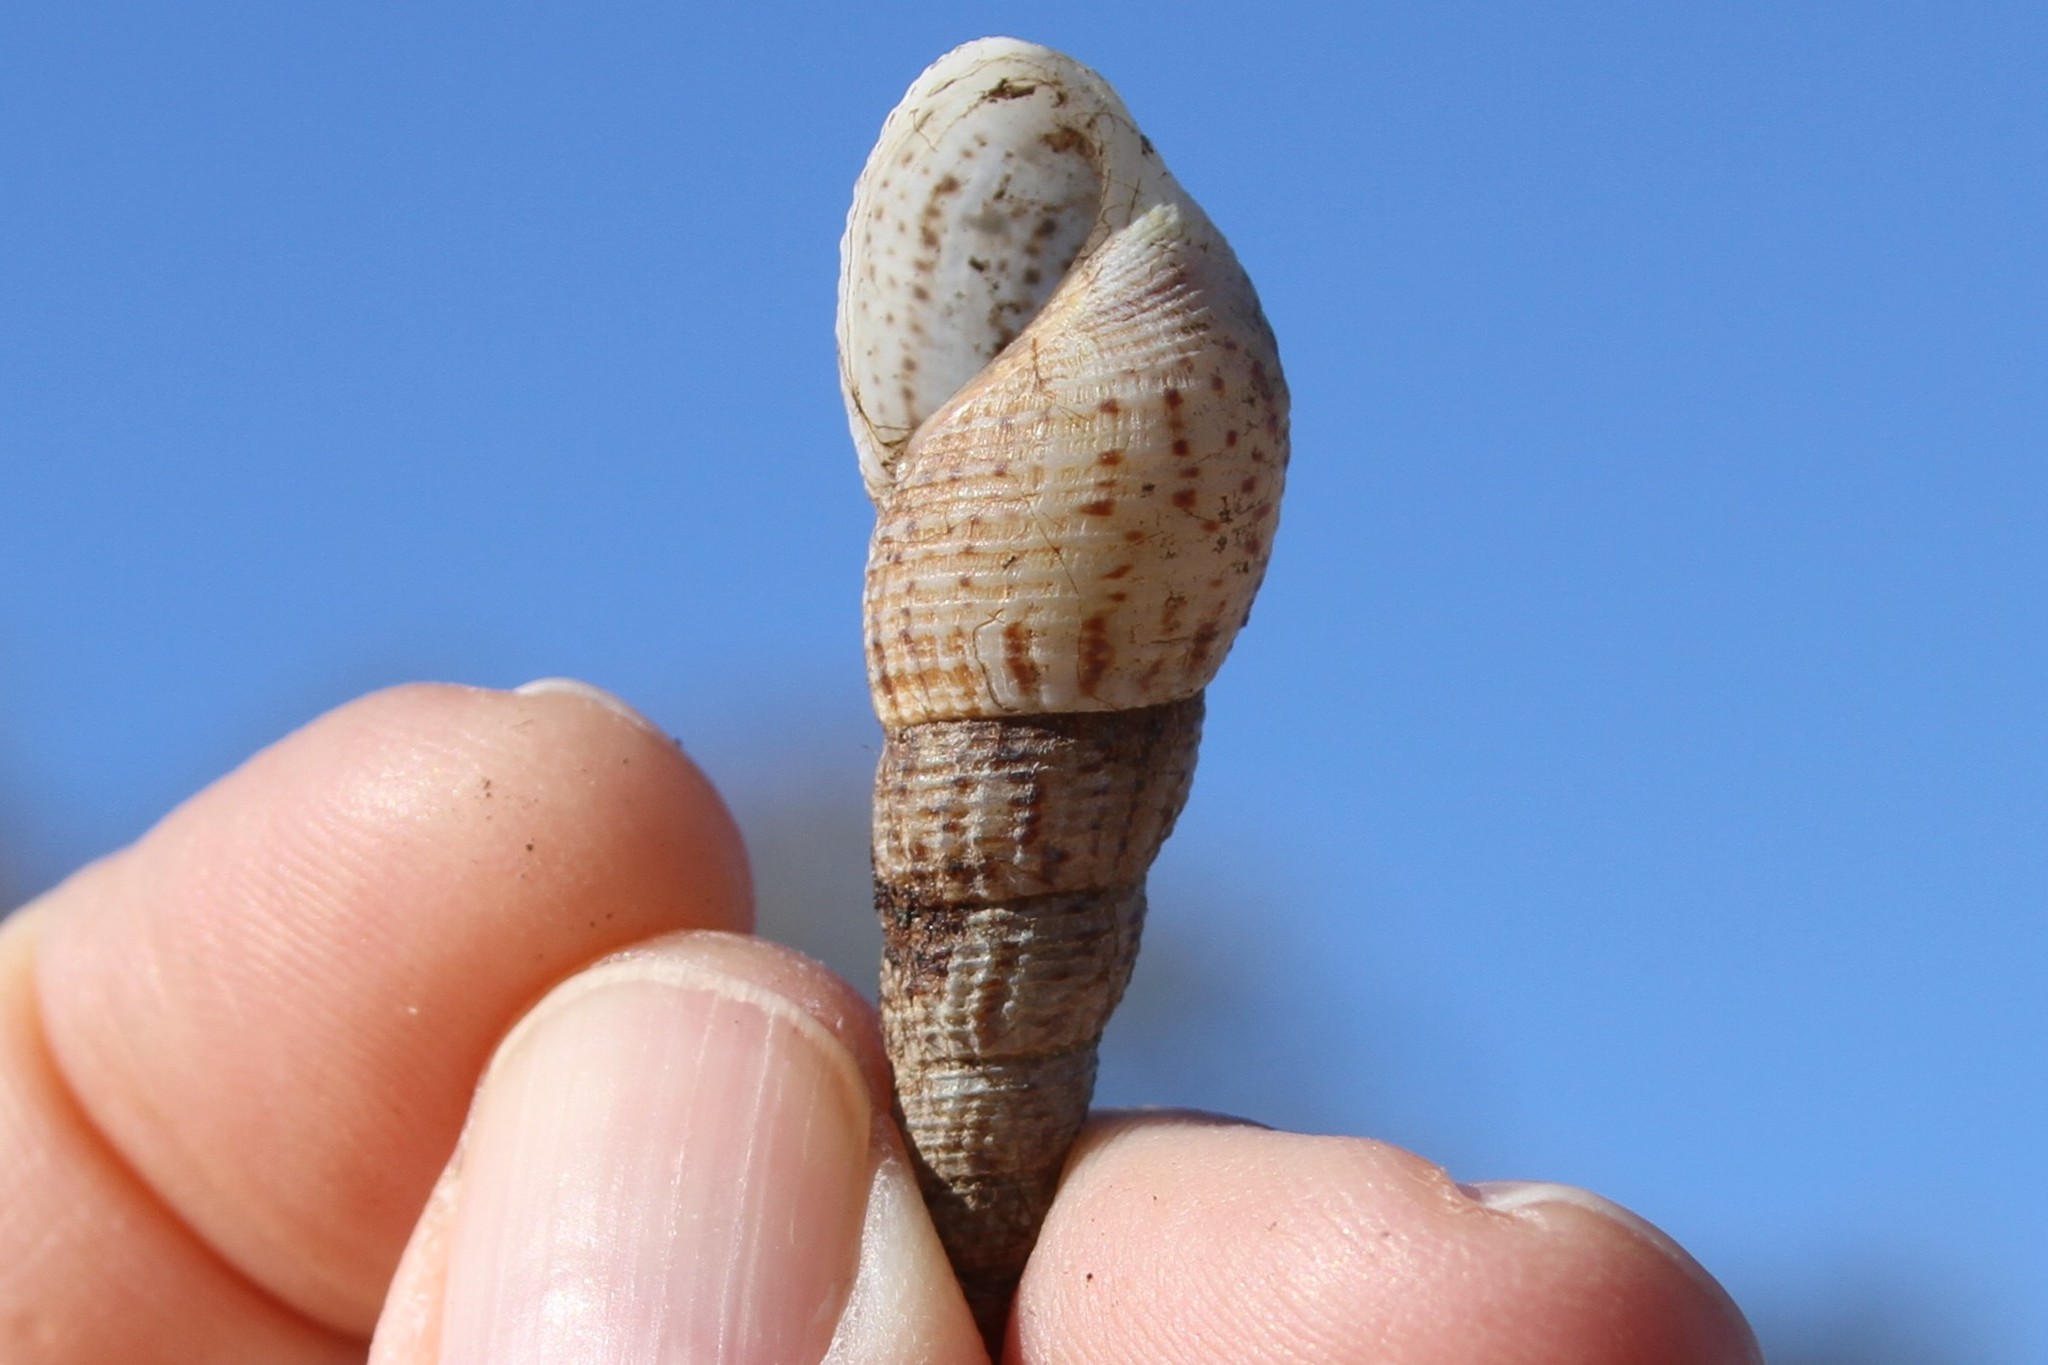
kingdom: Animalia
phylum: Mollusca
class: Gastropoda
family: Thiaridae
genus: Melanoides
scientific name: Melanoides tuberculata
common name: Red-rim melania
